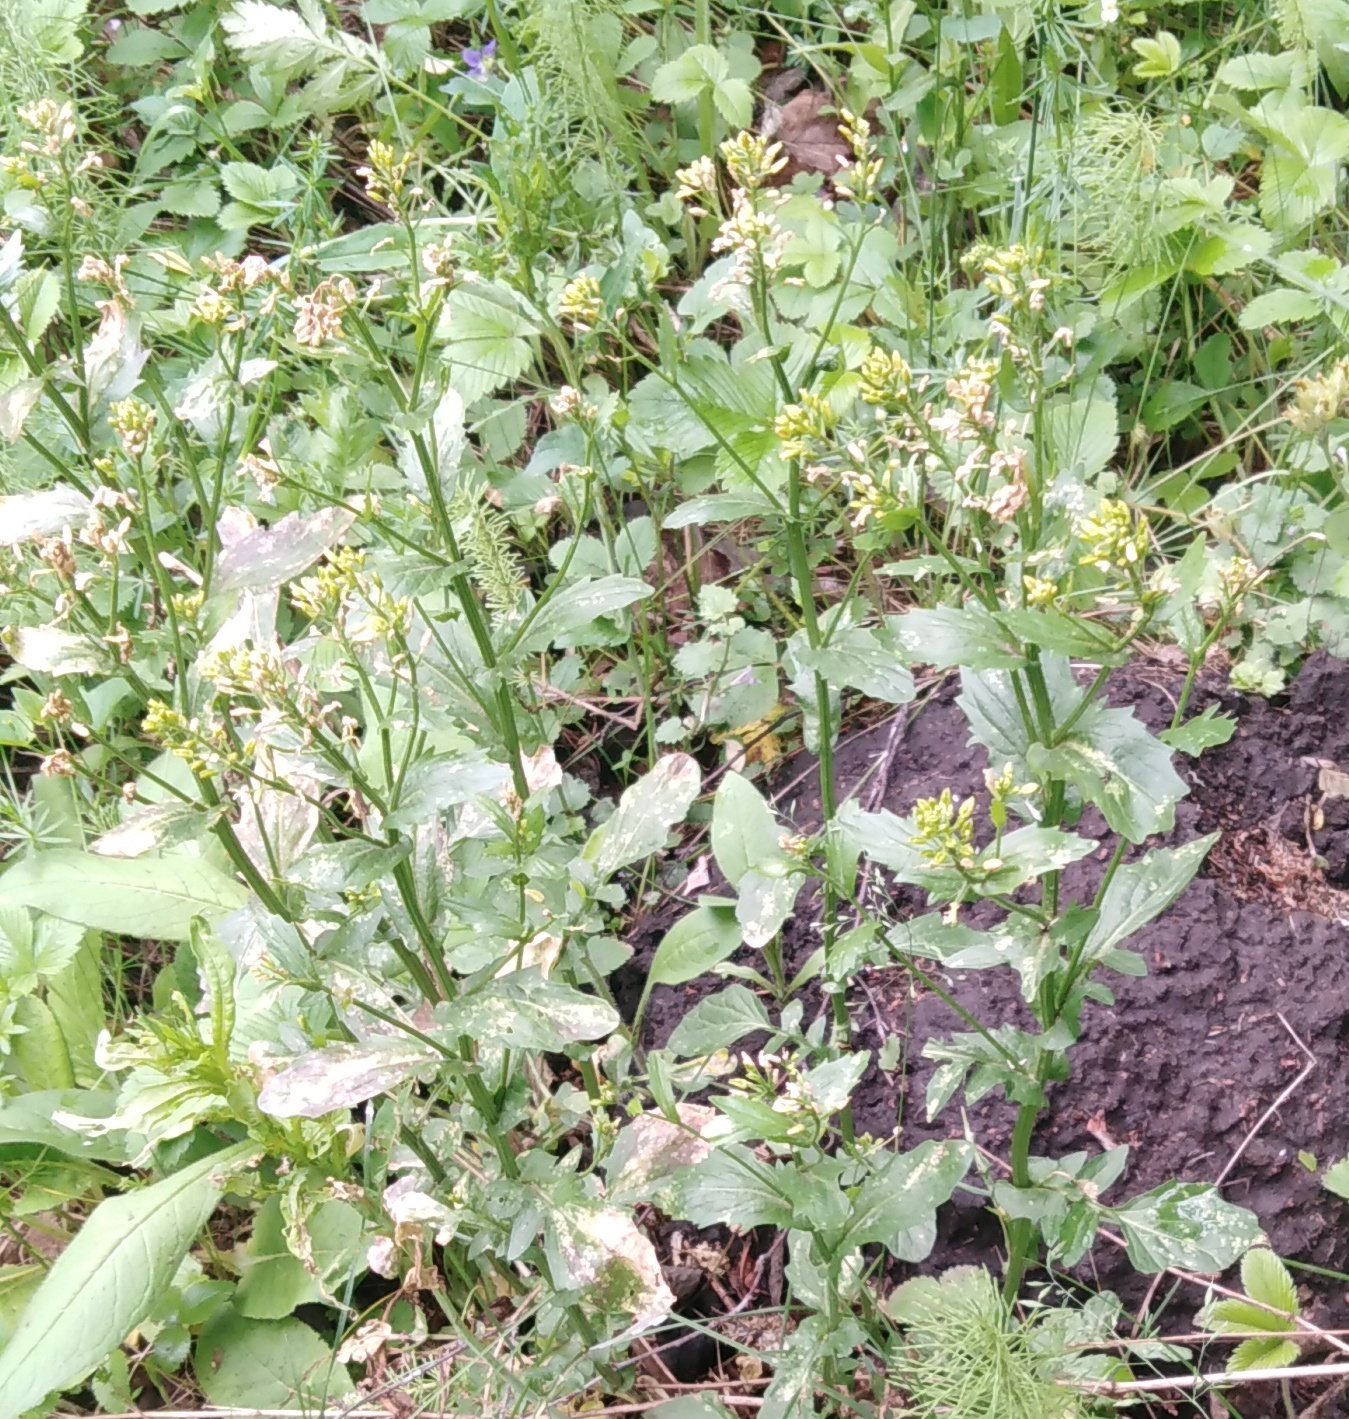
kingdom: Plantae
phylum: Tracheophyta
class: Magnoliopsida
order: Brassicales
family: Brassicaceae
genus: Barbarea
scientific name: Barbarea vulgaris
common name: Cressy-greens
